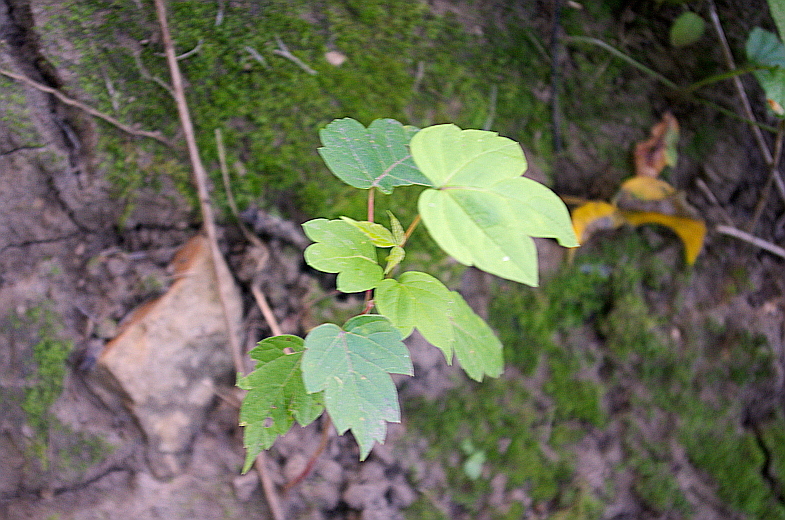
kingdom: Plantae
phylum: Tracheophyta
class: Magnoliopsida
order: Sapindales
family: Sapindaceae
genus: Acer
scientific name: Acer negundo
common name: Ashleaf maple
